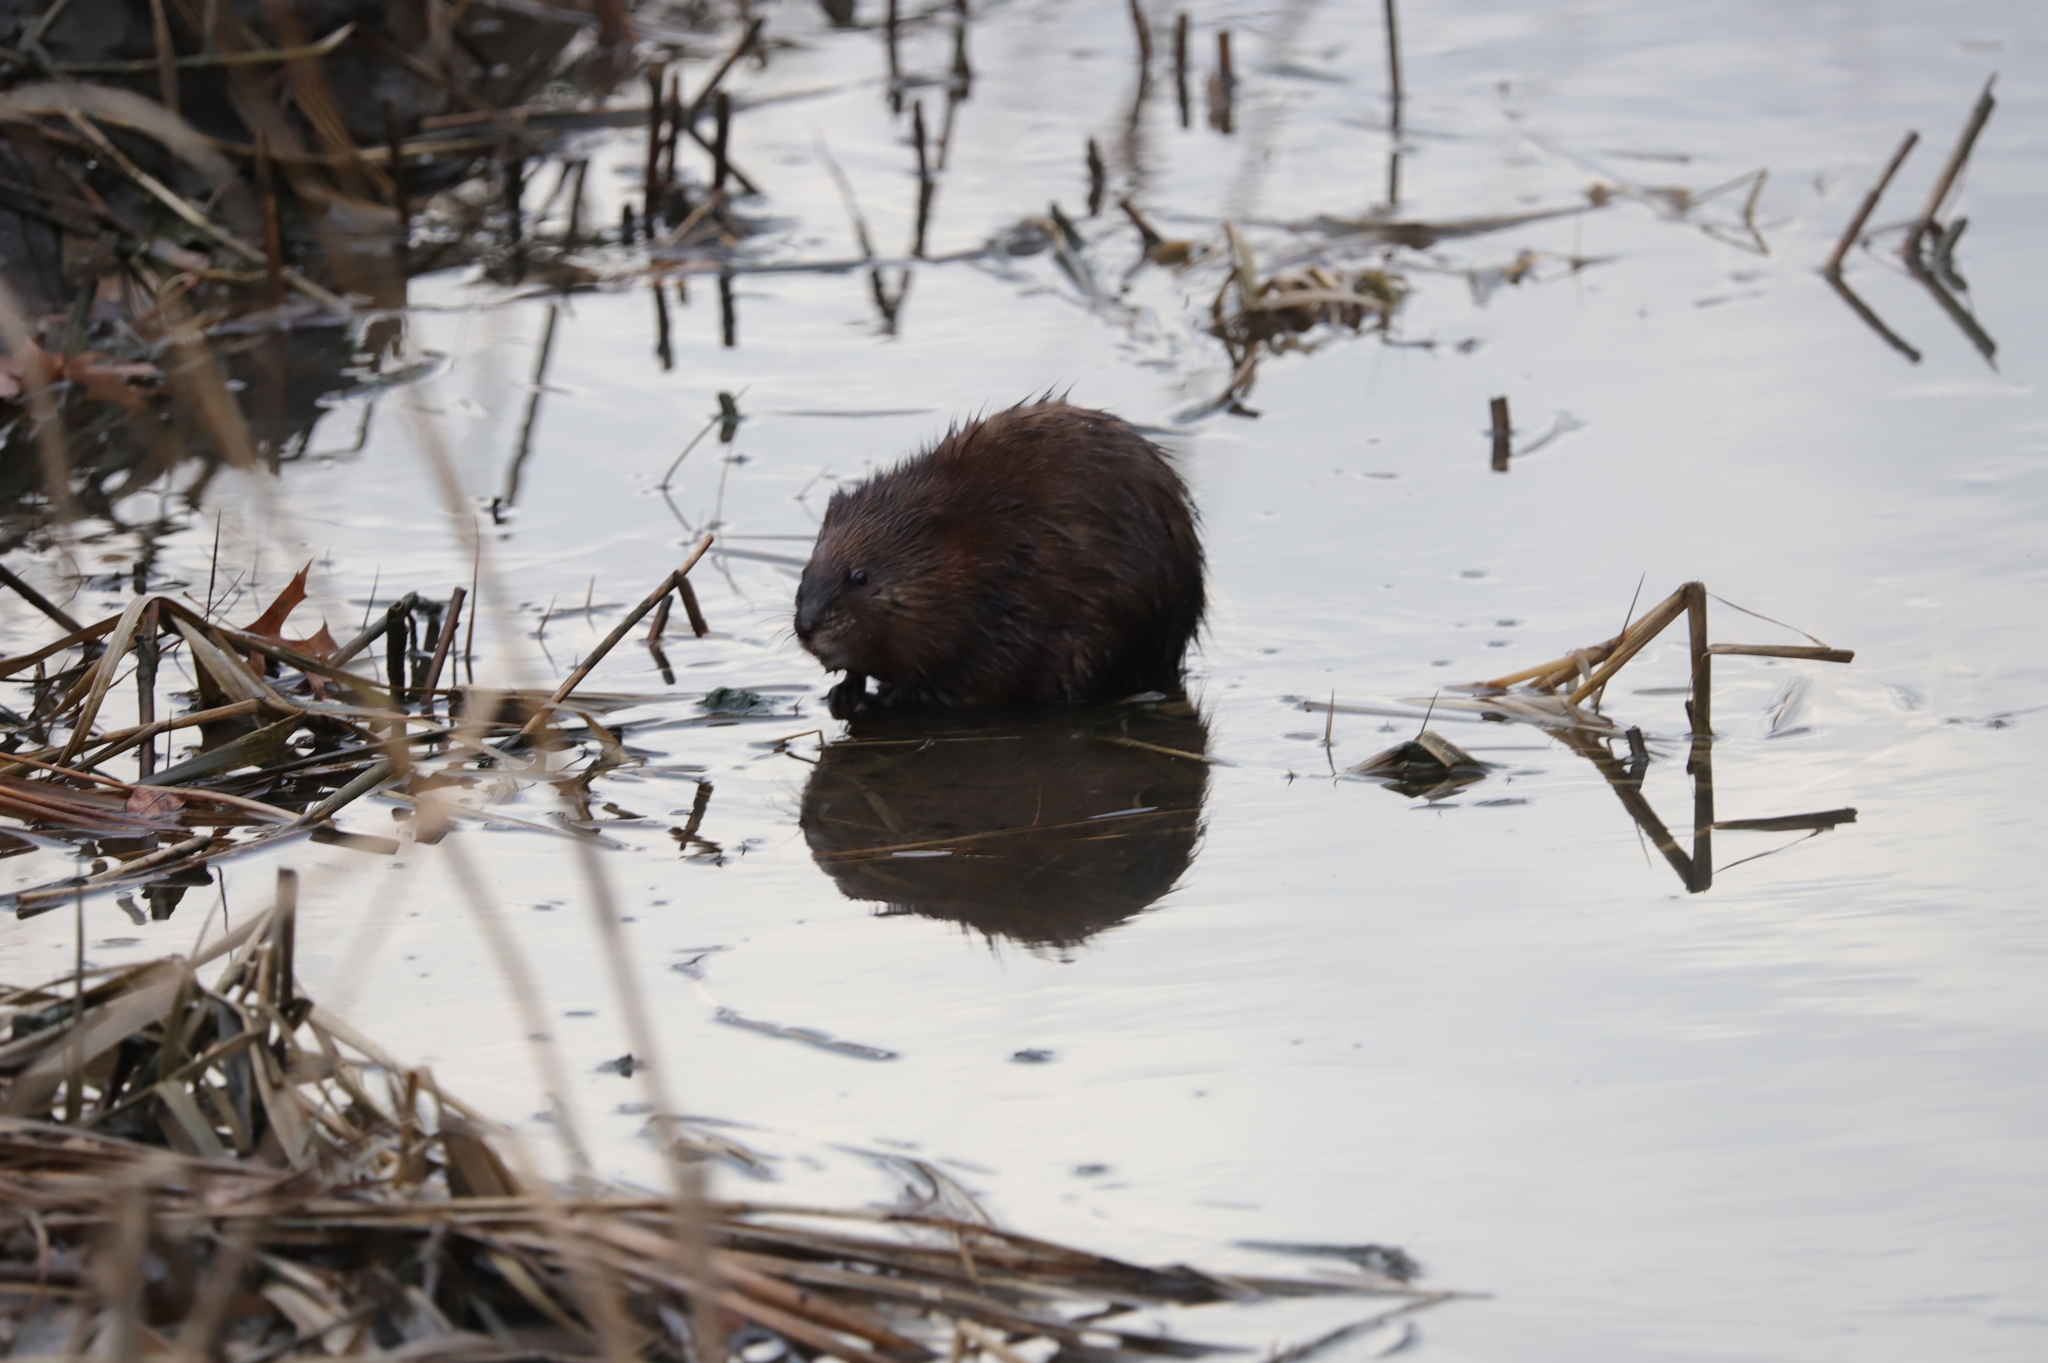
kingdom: Animalia
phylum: Chordata
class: Mammalia
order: Rodentia
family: Cricetidae
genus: Ondatra
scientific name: Ondatra zibethicus
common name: Muskrat
